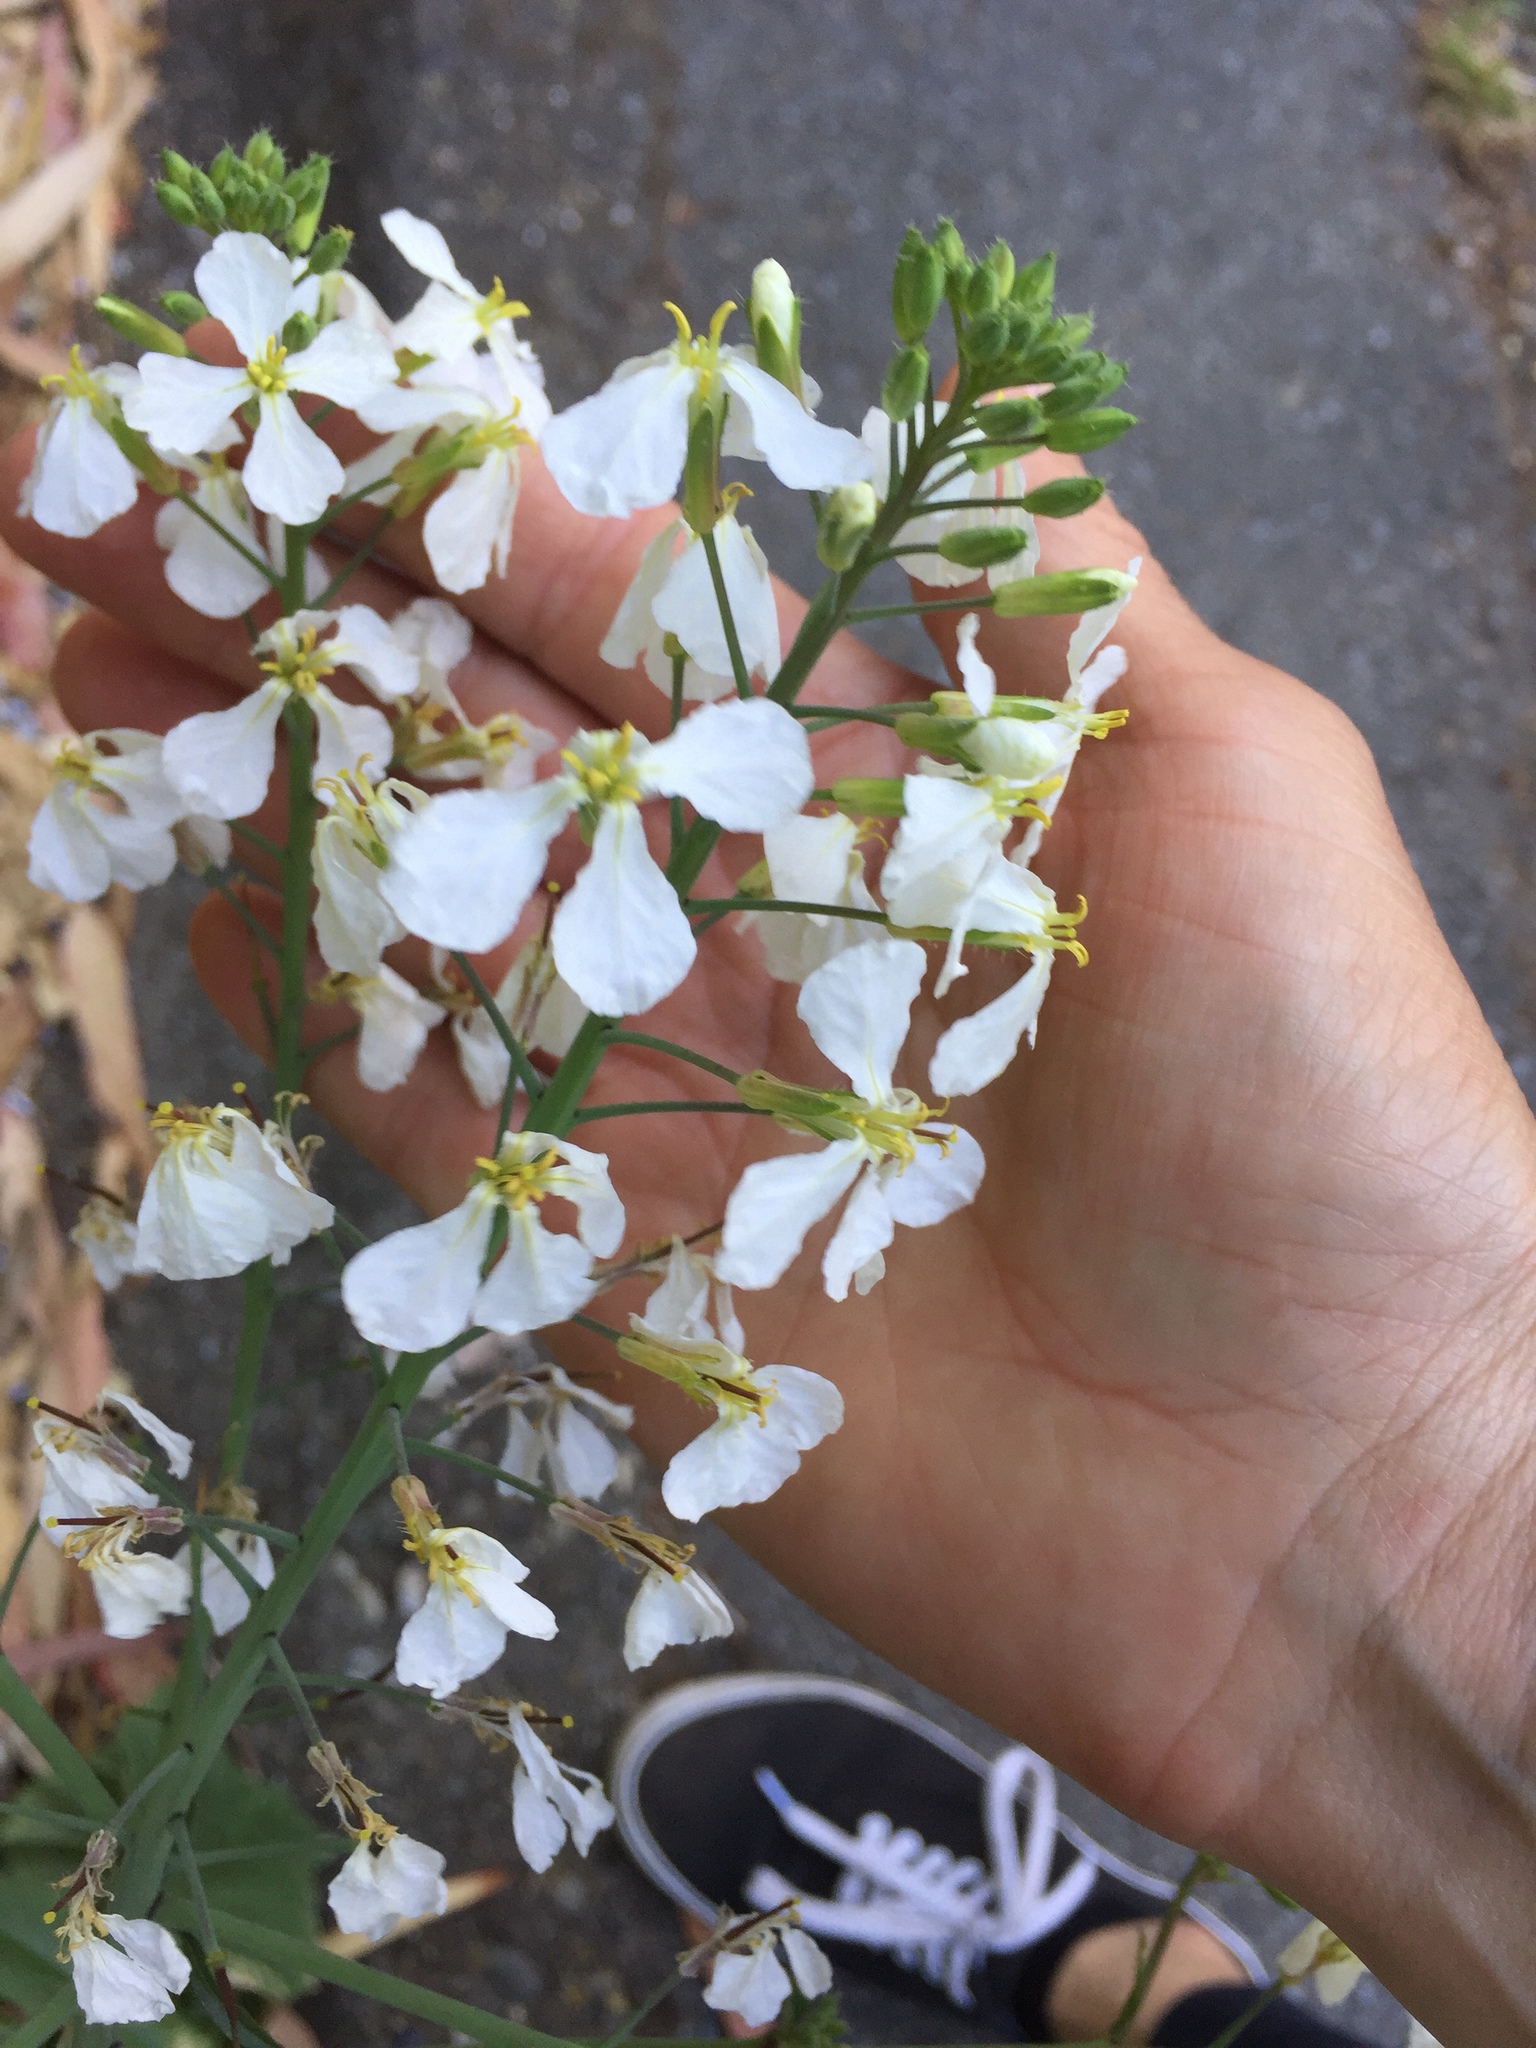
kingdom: Plantae
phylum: Tracheophyta
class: Magnoliopsida
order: Brassicales
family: Brassicaceae
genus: Raphanus
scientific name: Raphanus sativus
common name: Cultivated radish
